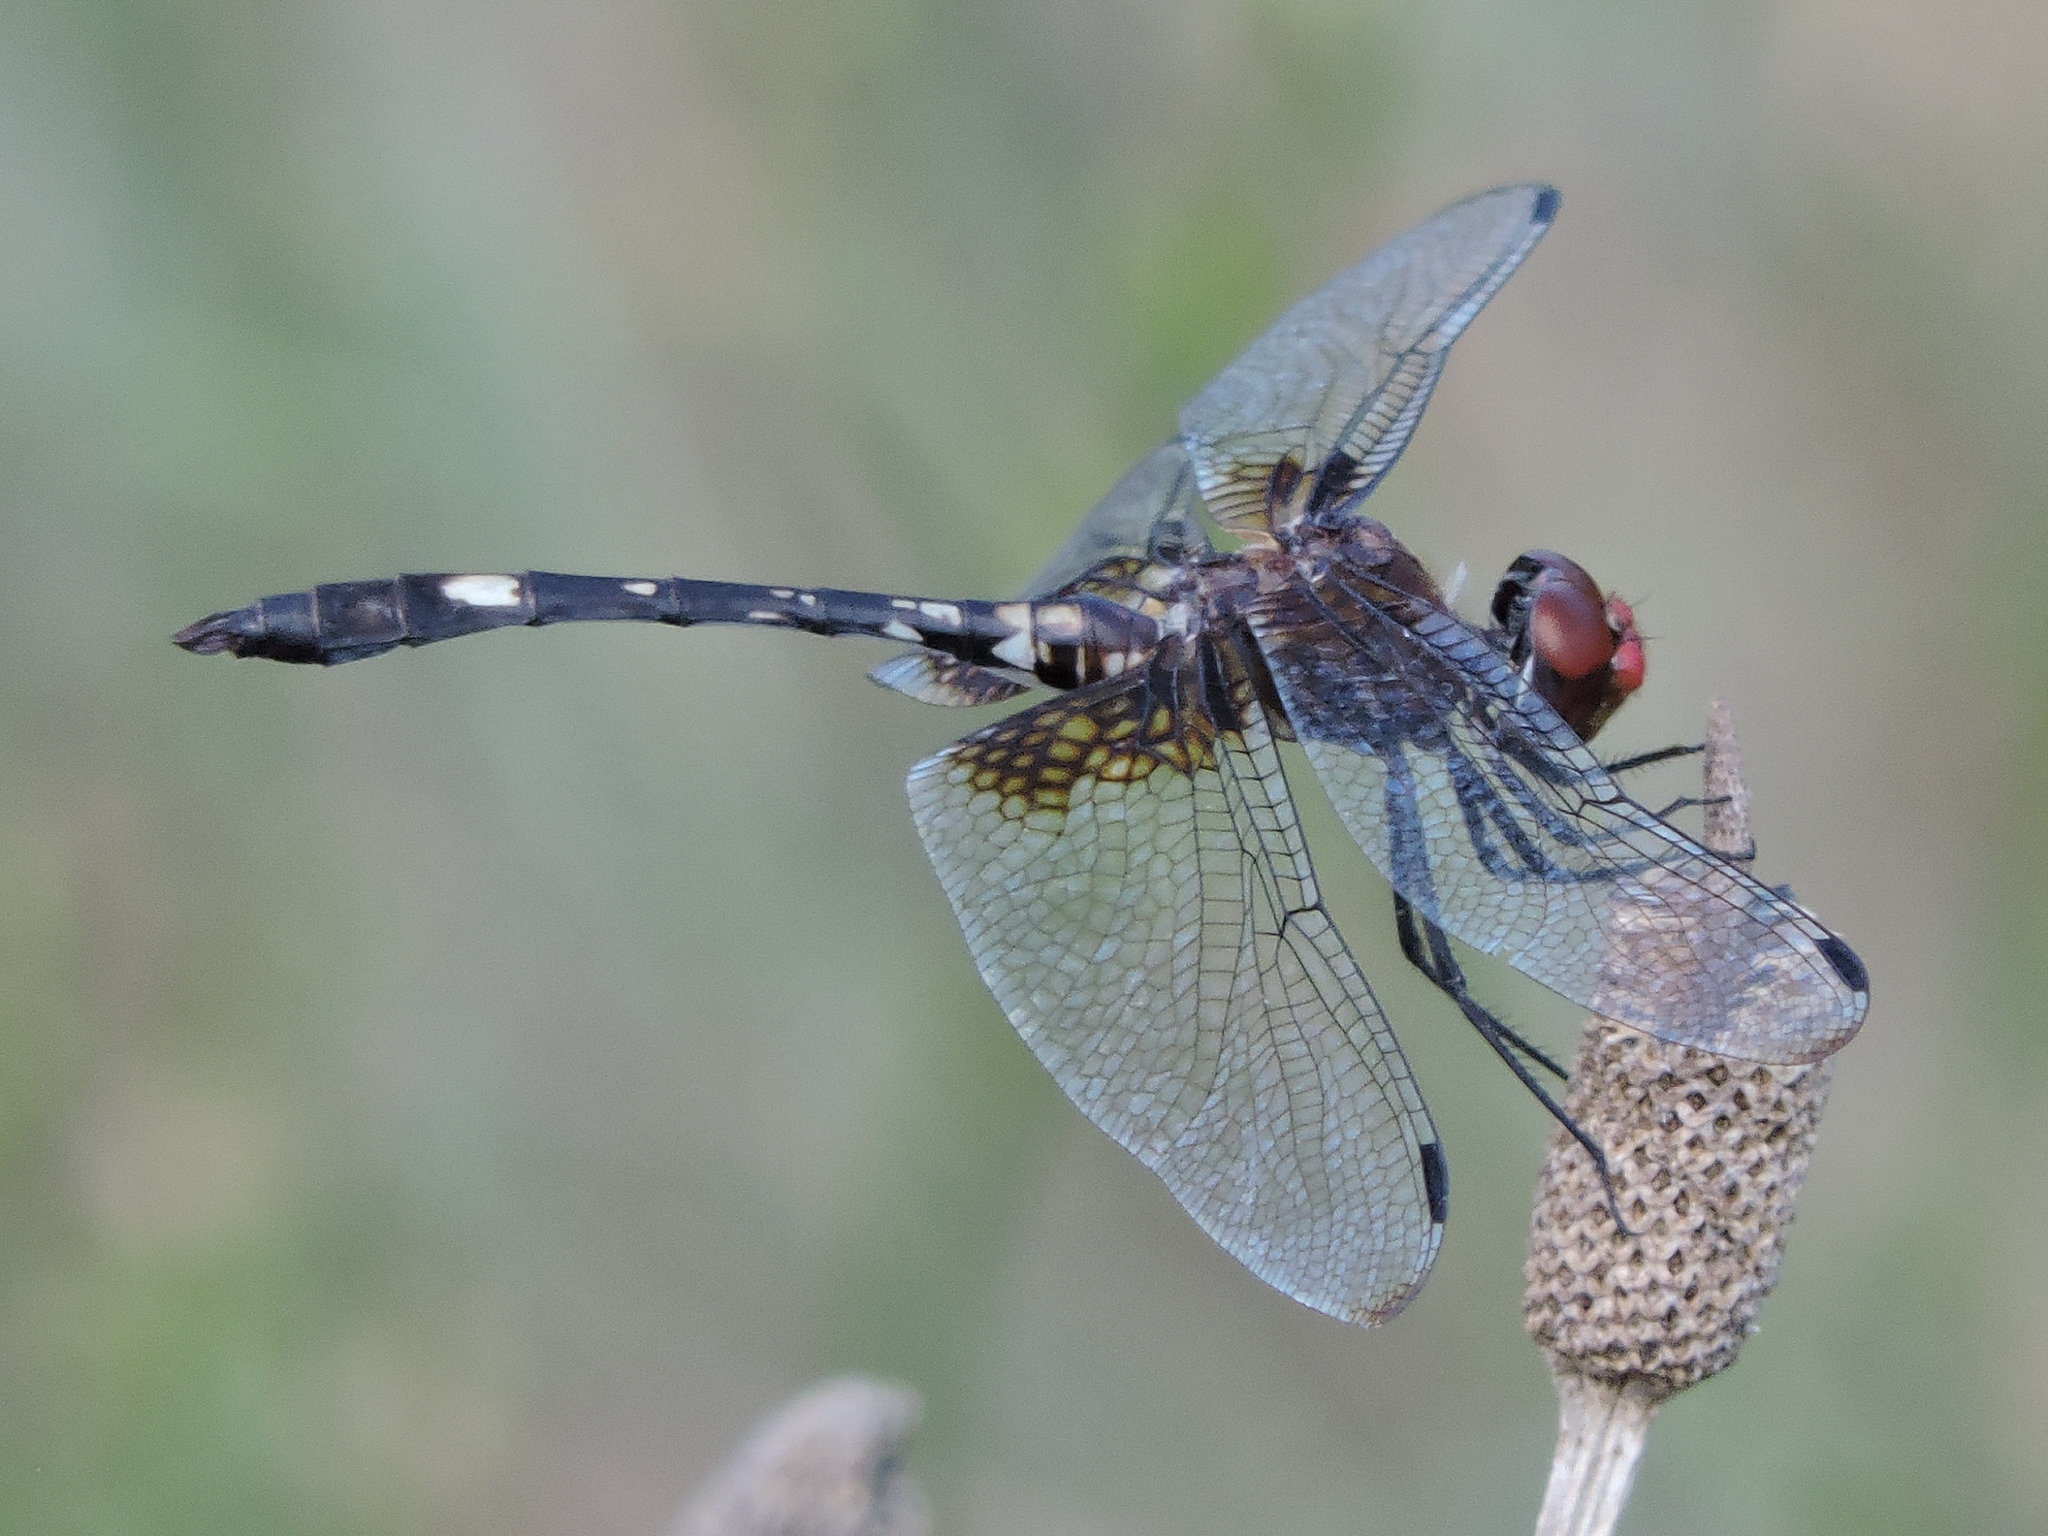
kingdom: Animalia
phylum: Arthropoda
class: Insecta
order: Odonata
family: Libellulidae
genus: Dythemis
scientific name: Dythemis fugax
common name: Checkered setwing
